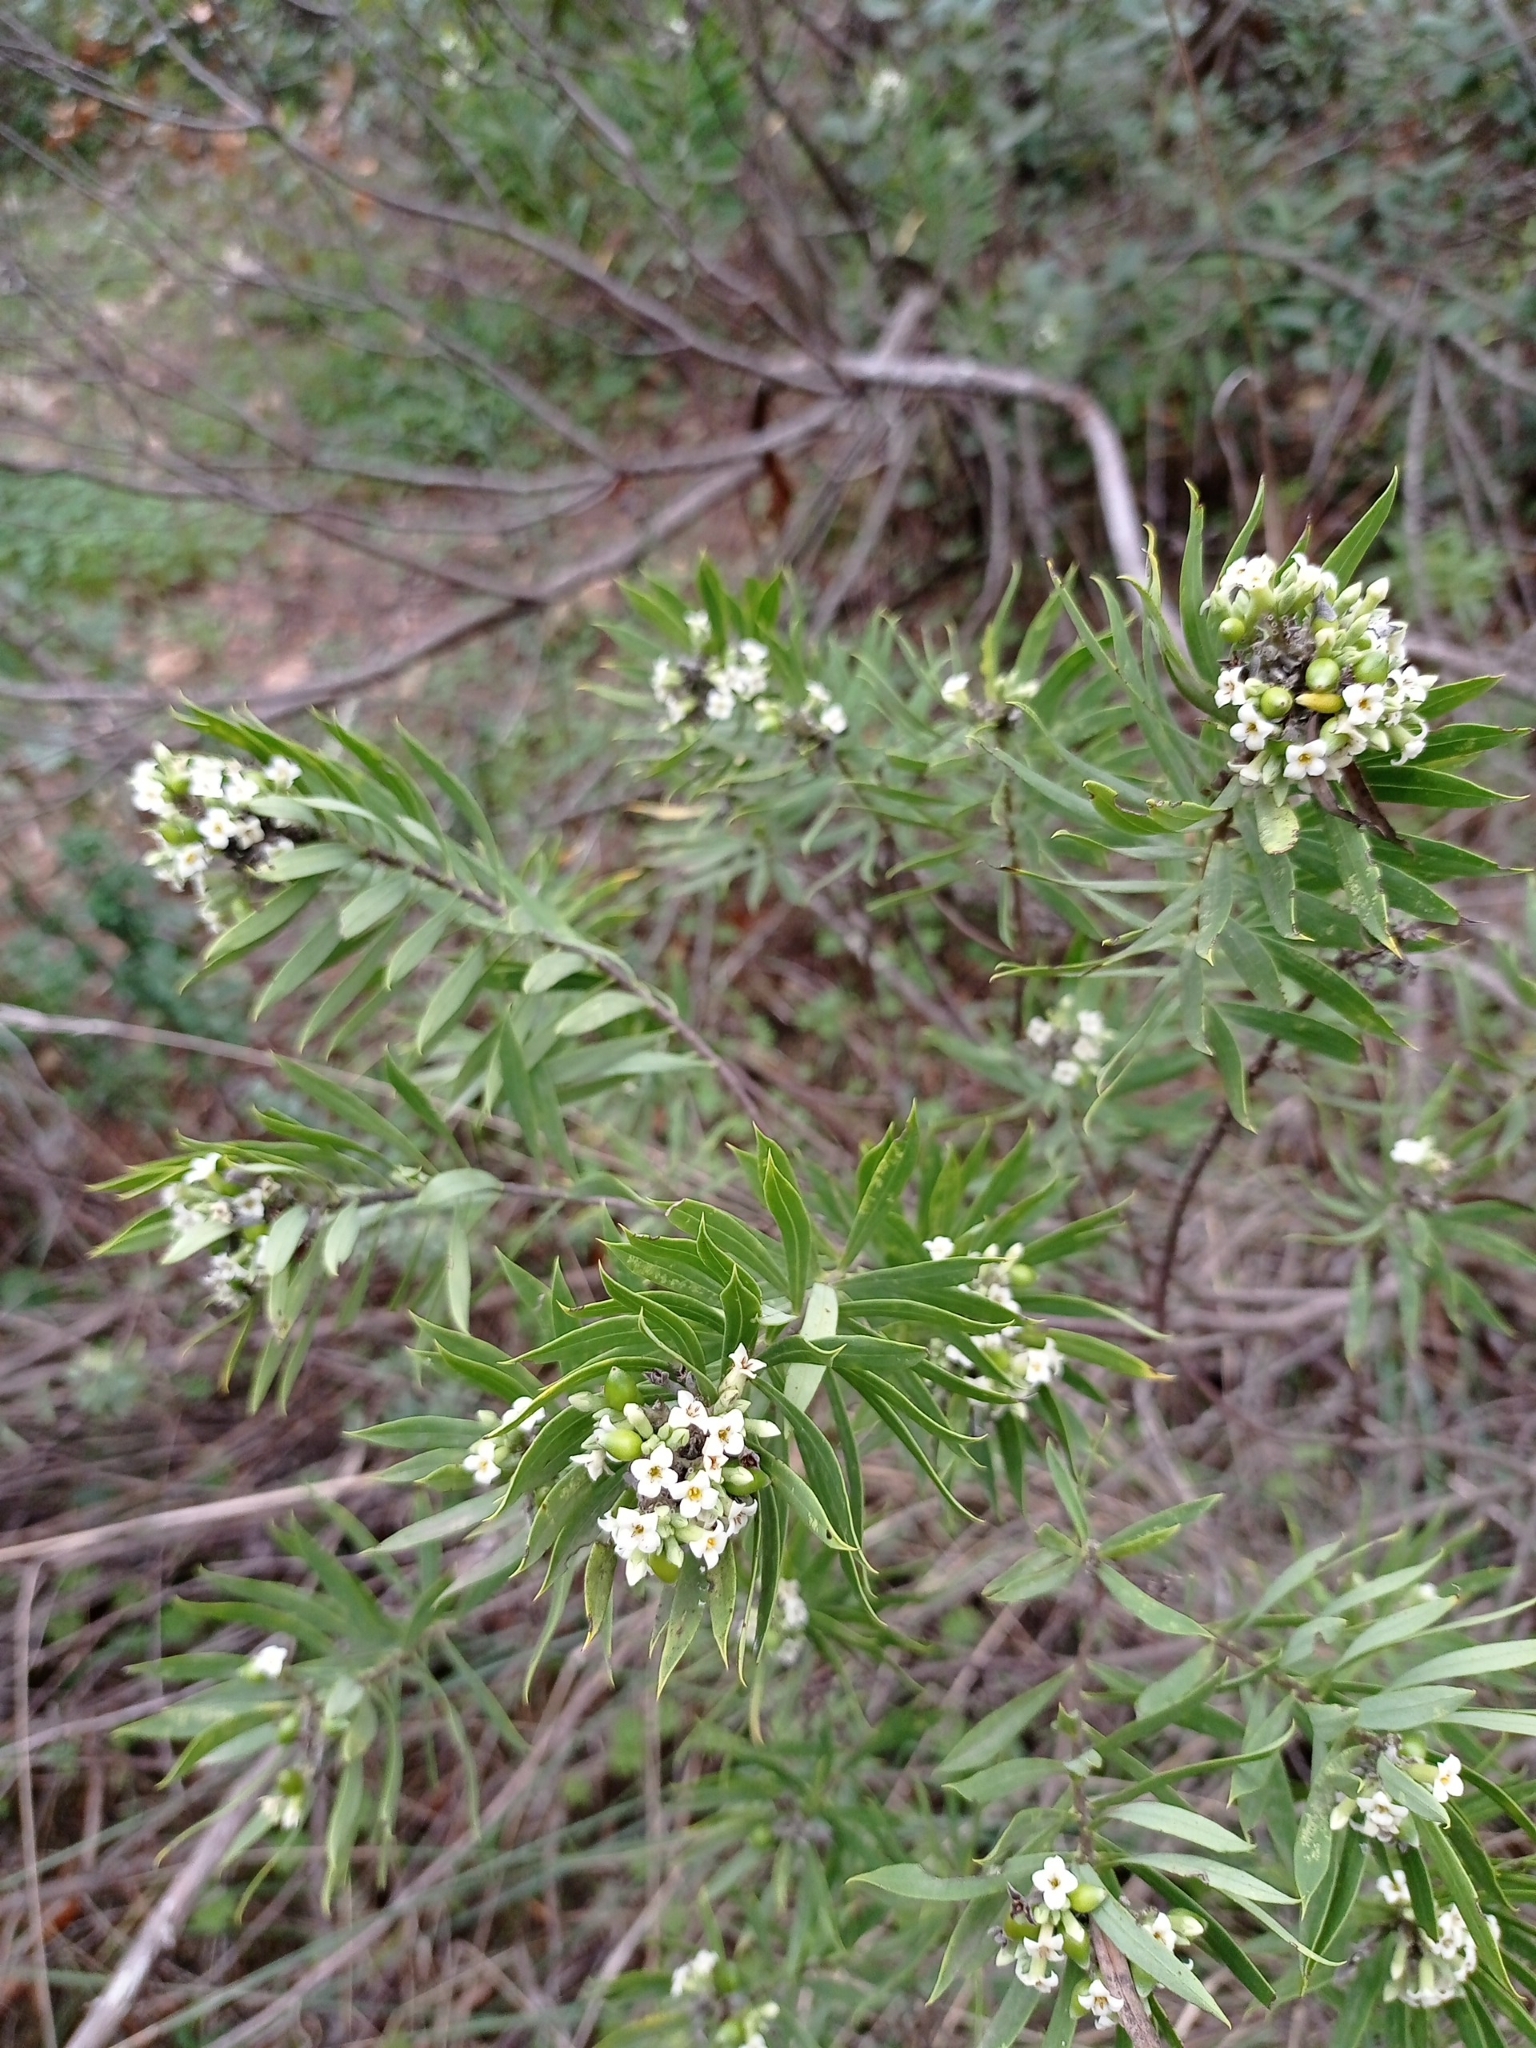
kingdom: Plantae
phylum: Tracheophyta
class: Magnoliopsida
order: Malvales
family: Thymelaeaceae
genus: Daphne
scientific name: Daphne gnidium
